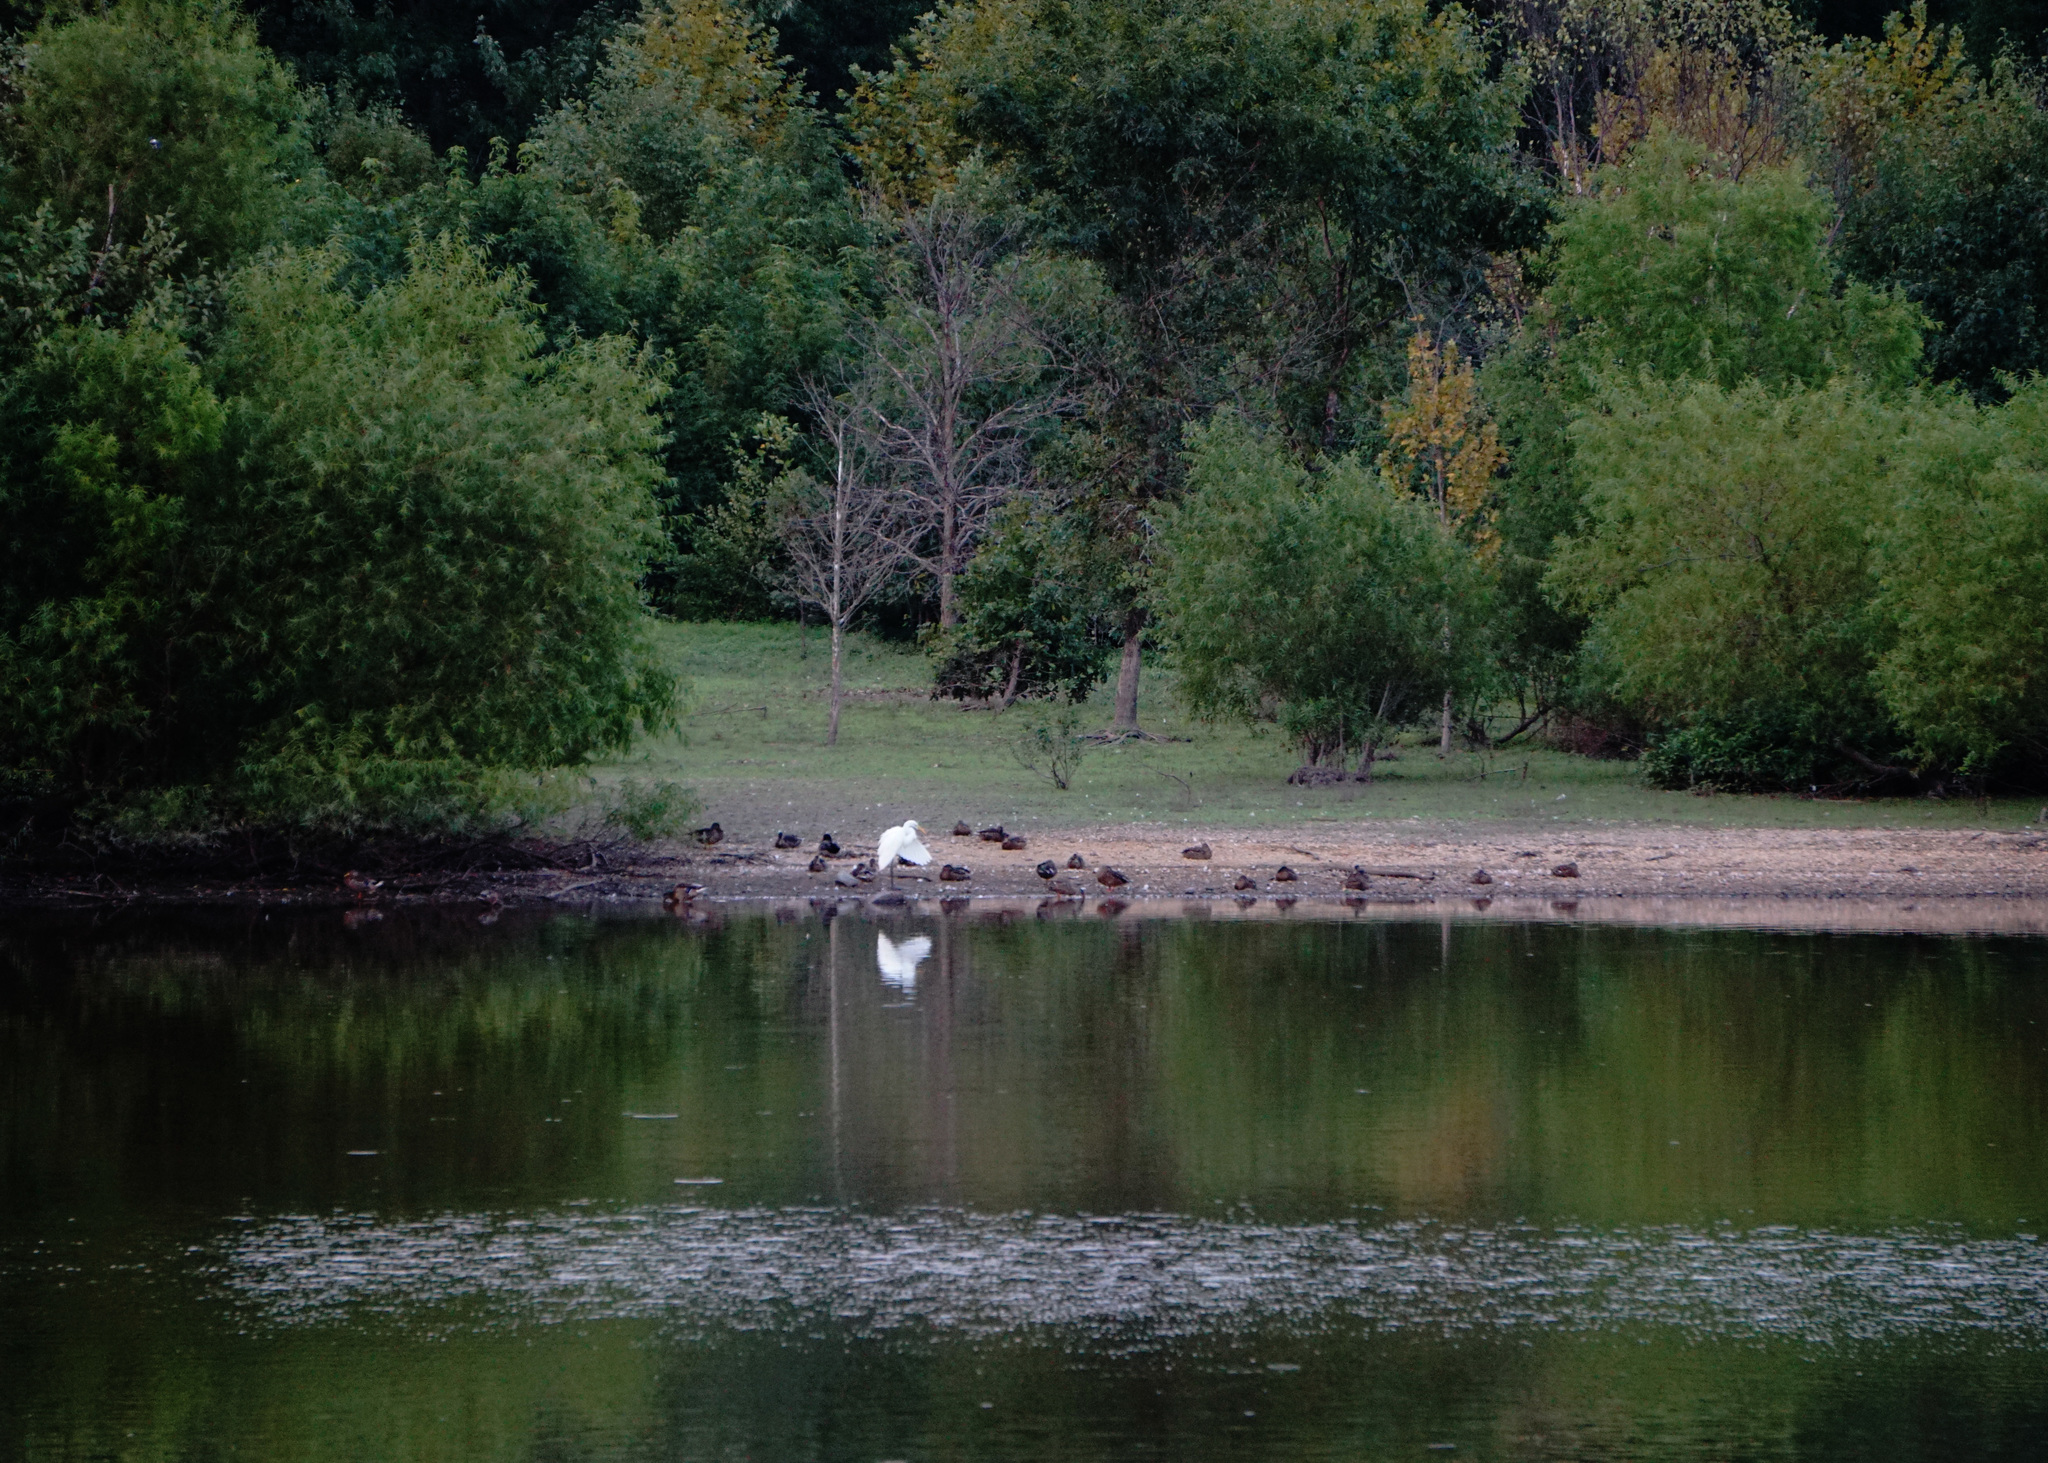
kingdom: Animalia
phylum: Chordata
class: Aves
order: Pelecaniformes
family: Ardeidae
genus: Ardea
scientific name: Ardea alba
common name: Great egret
